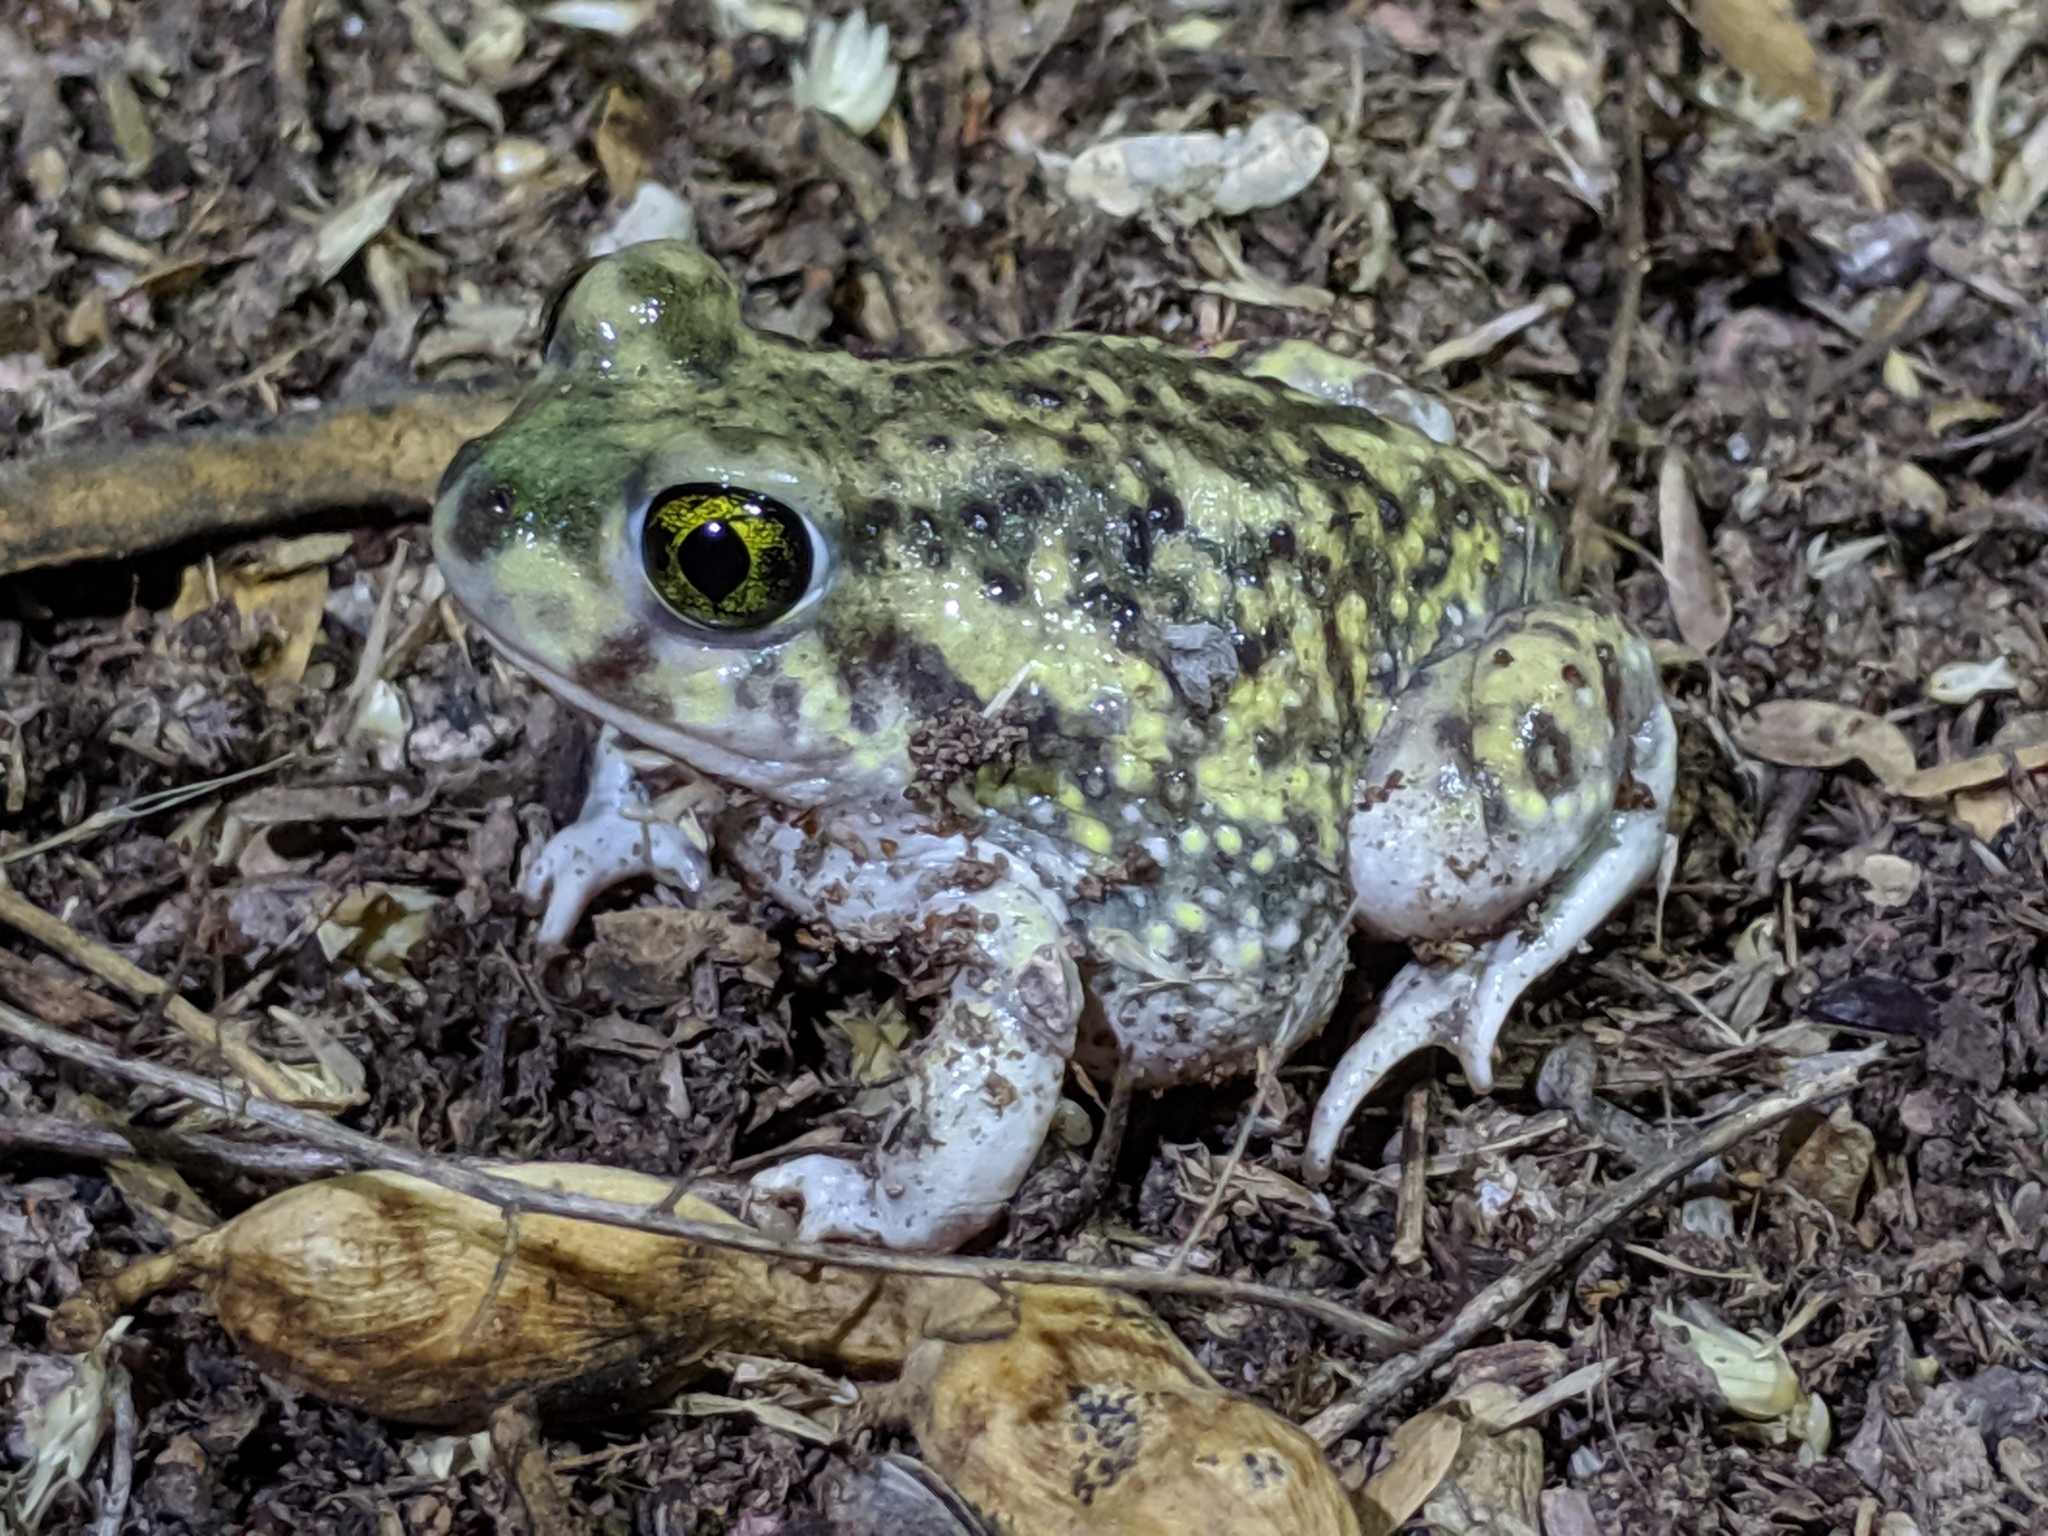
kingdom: Animalia
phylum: Chordata
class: Amphibia
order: Anura
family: Scaphiopodidae
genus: Scaphiopus
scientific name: Scaphiopus couchii
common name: Couch's spadefoot toad
